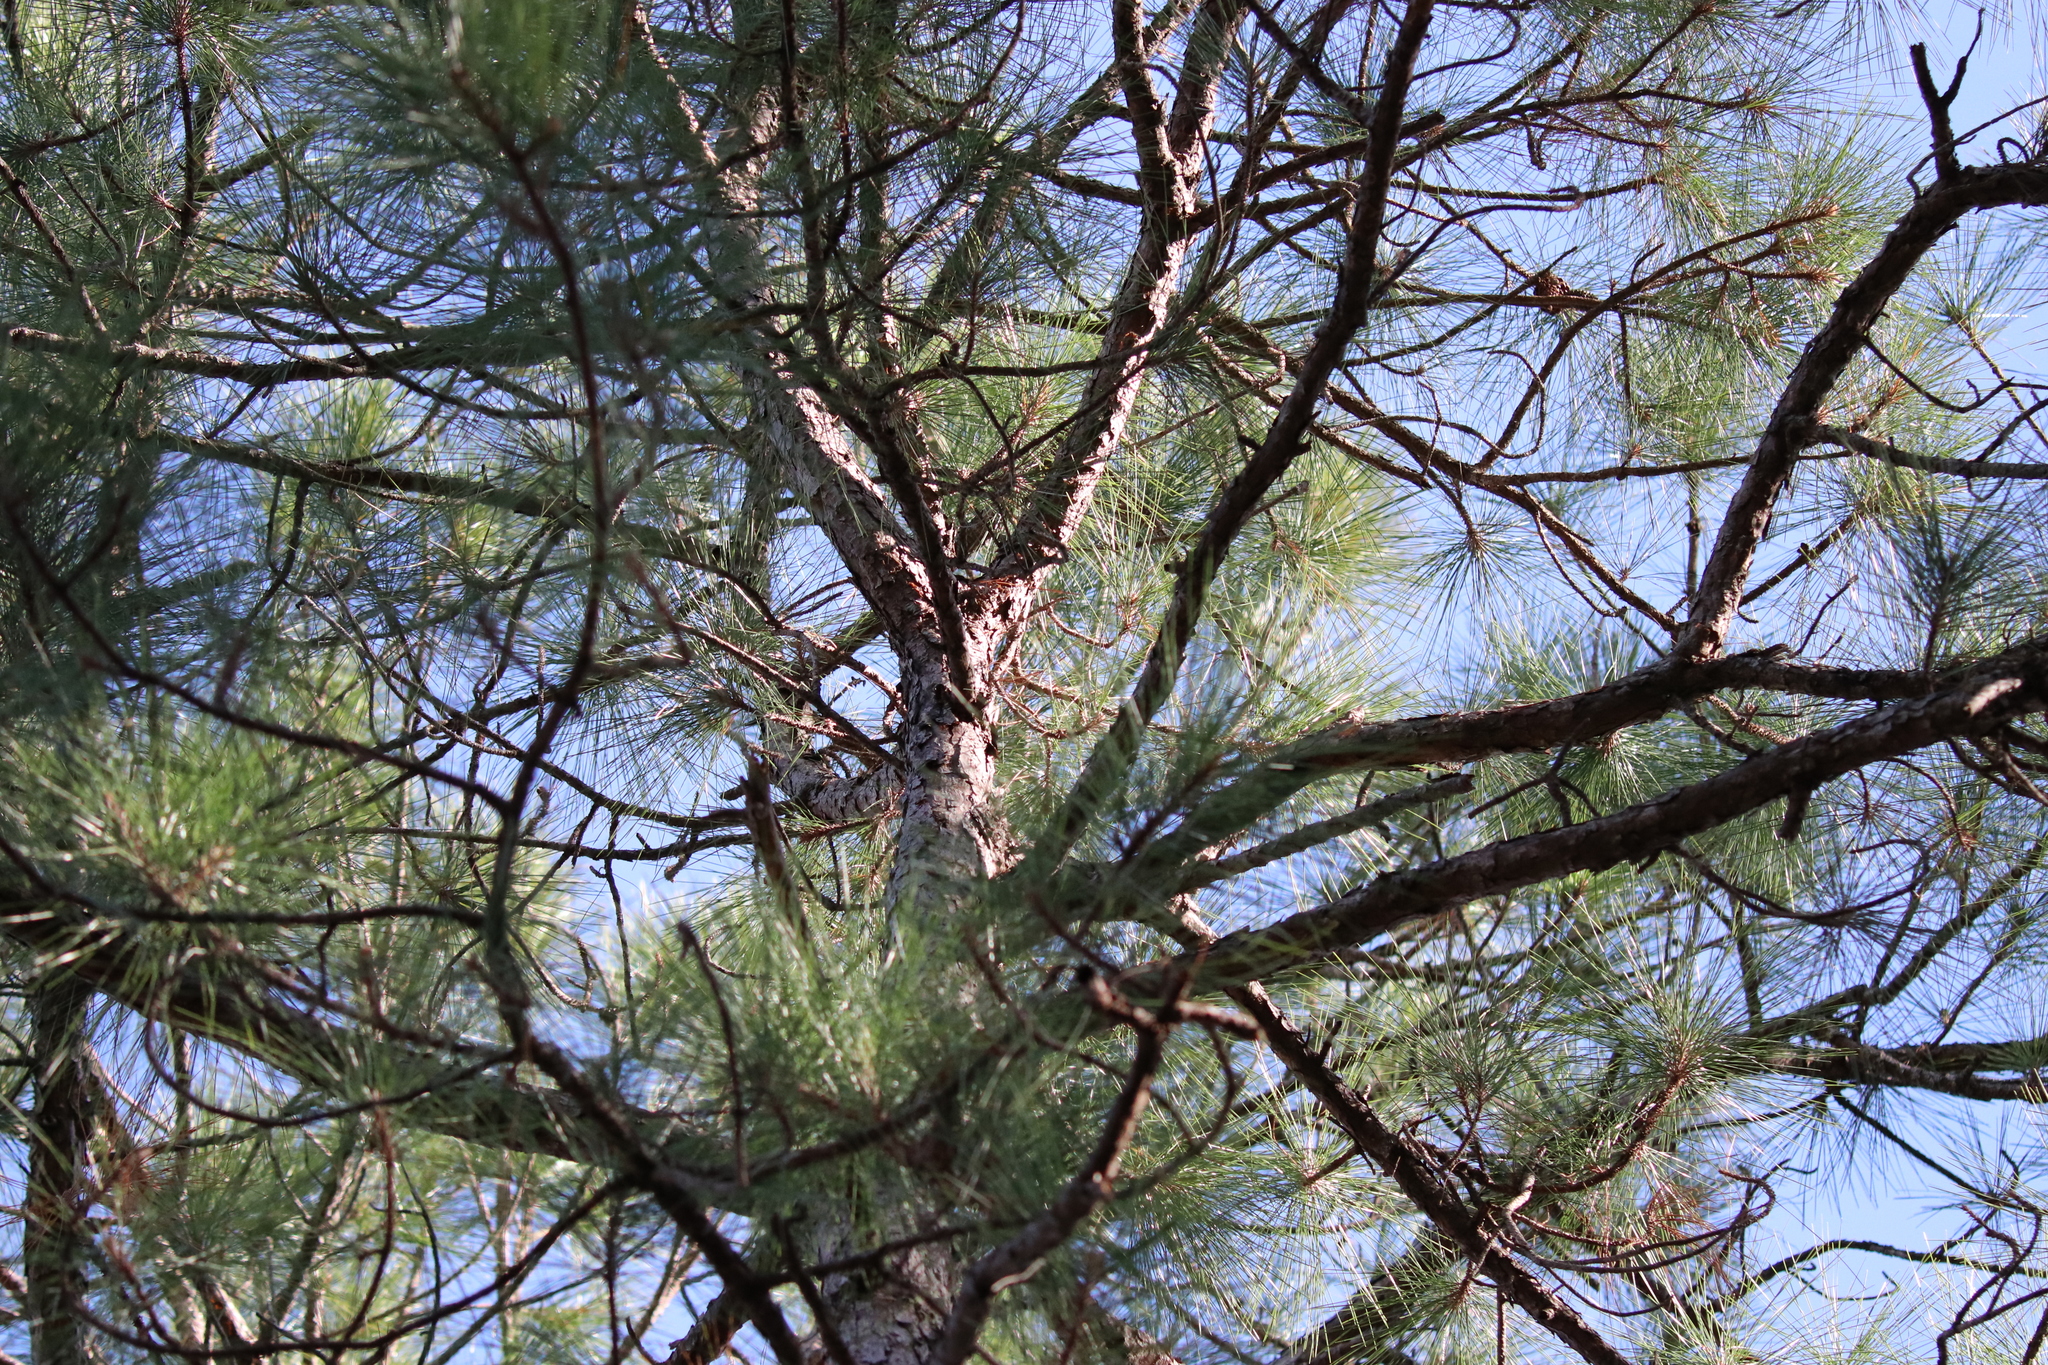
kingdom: Plantae
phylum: Tracheophyta
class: Pinopsida
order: Pinales
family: Pinaceae
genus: Pinus
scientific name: Pinus elliottii
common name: Slash pine
